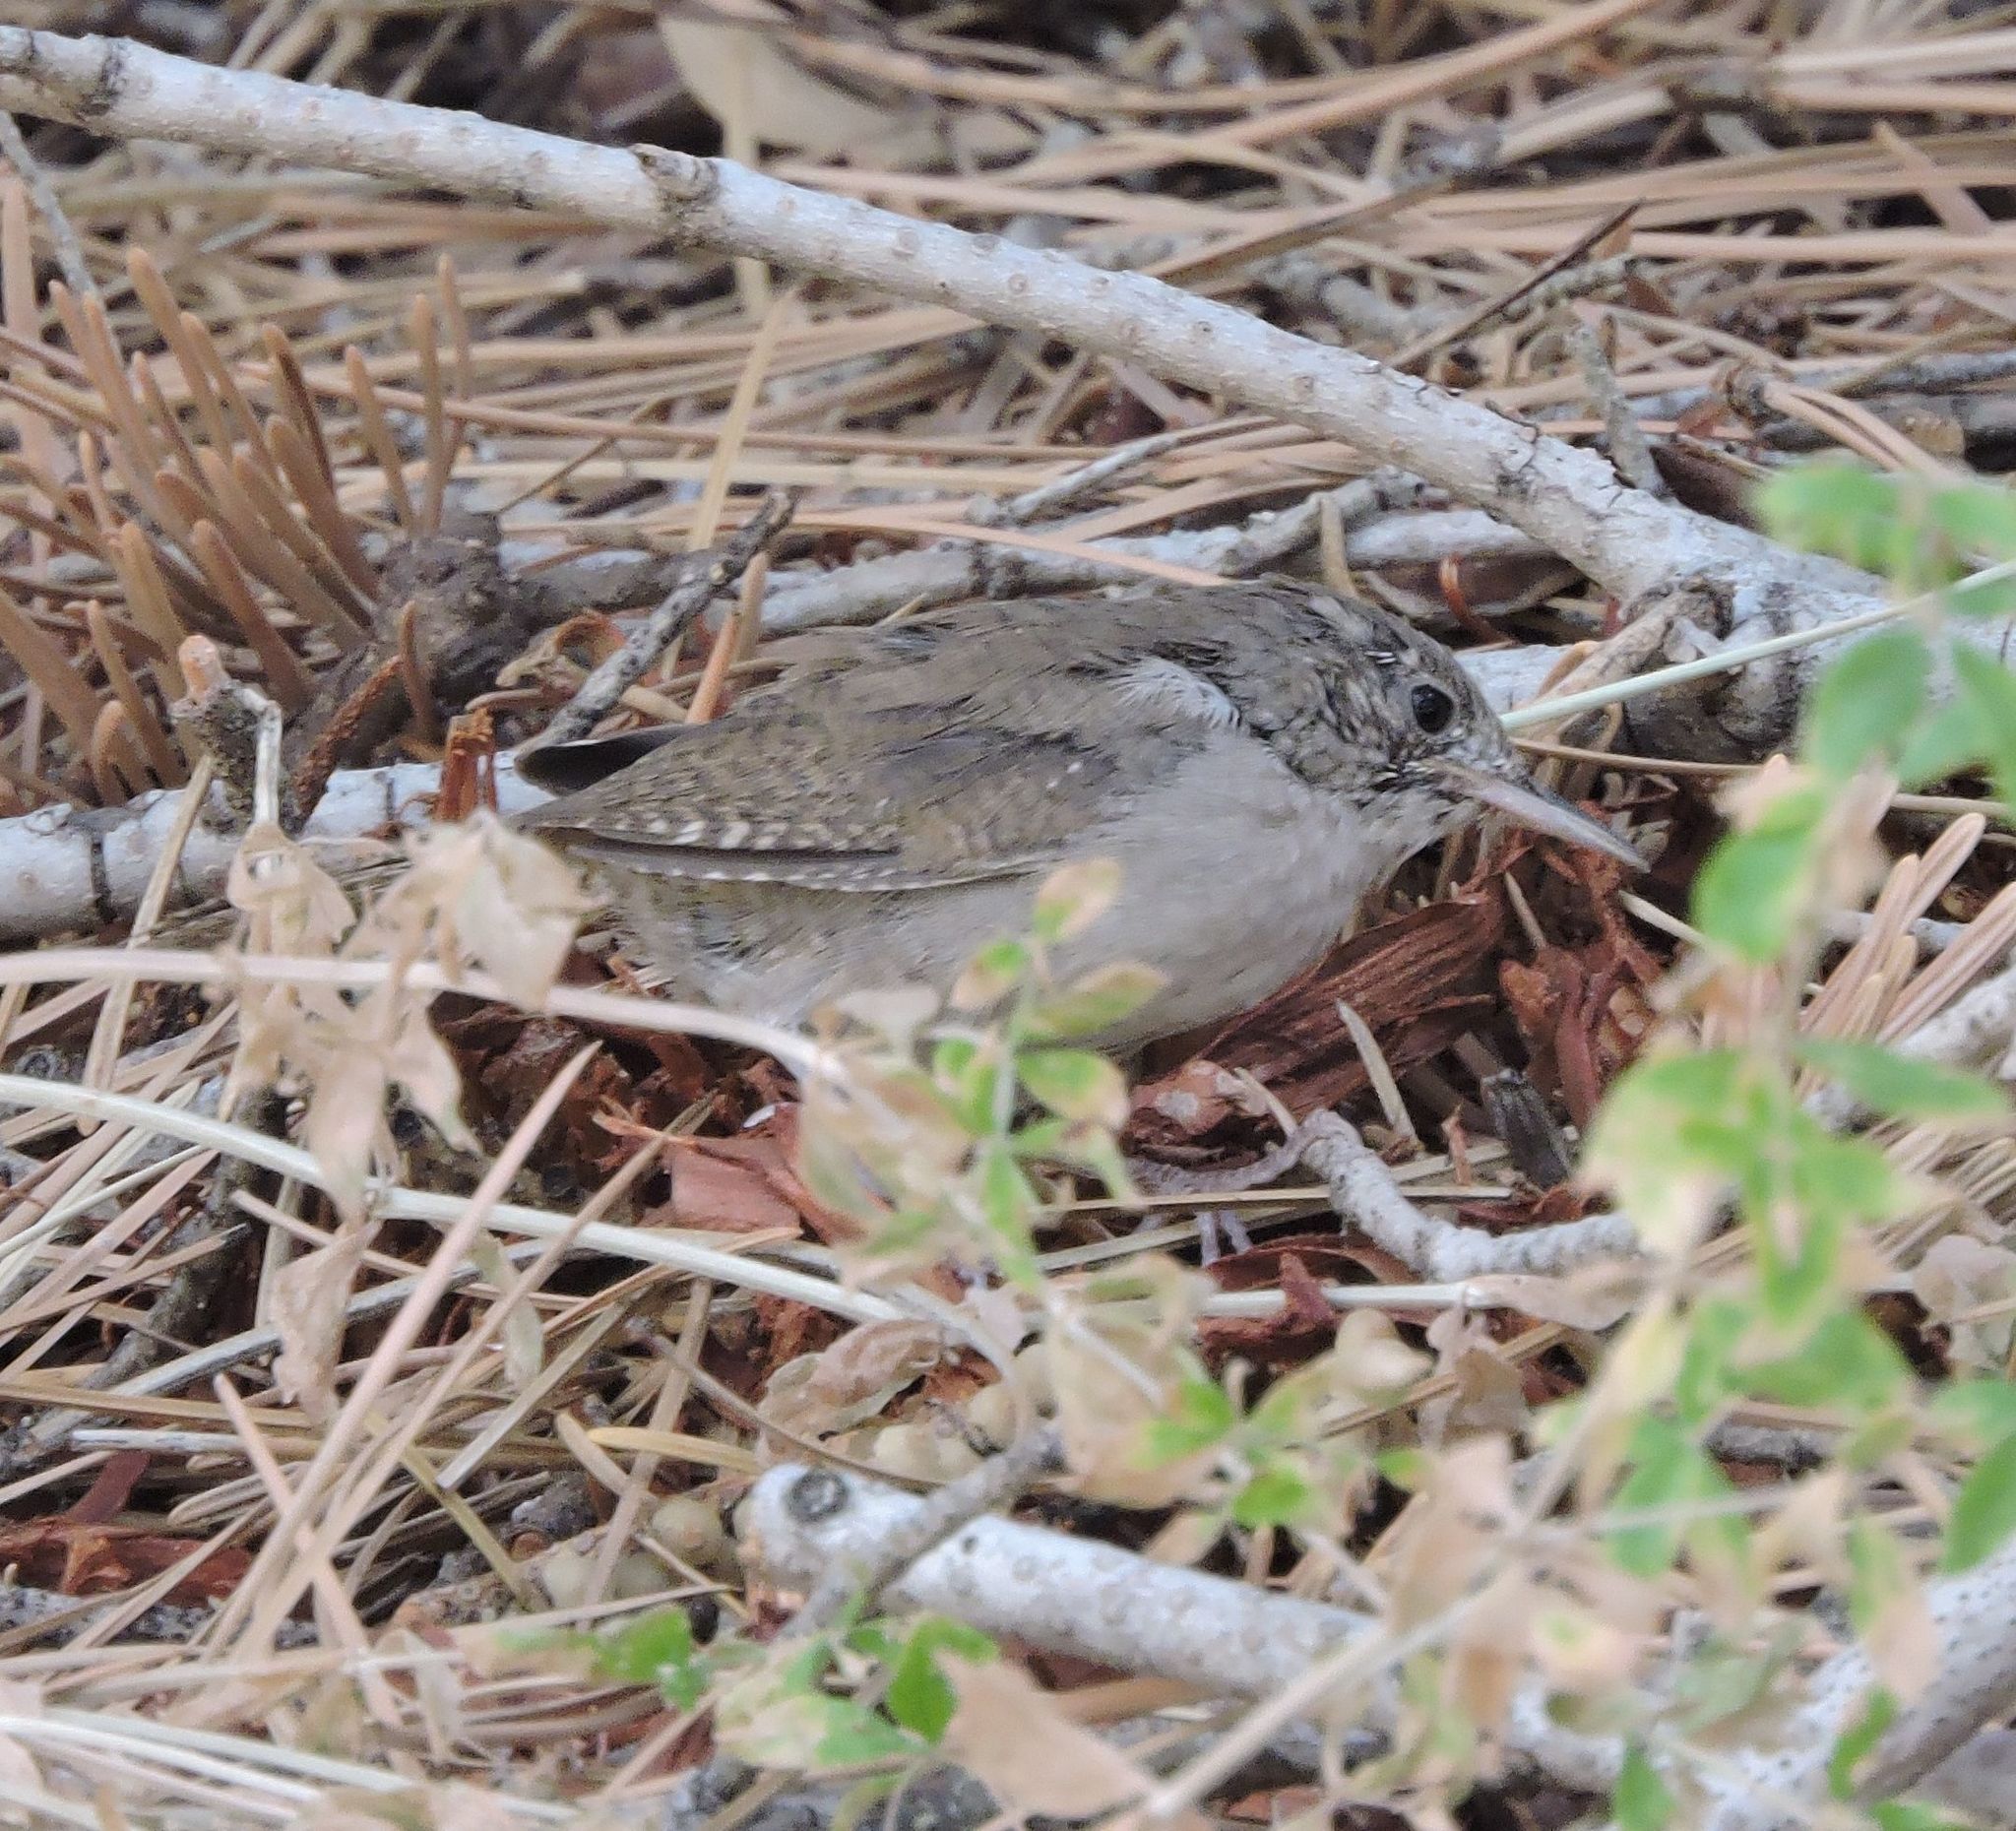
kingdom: Animalia
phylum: Chordata
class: Aves
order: Passeriformes
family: Troglodytidae
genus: Salpinctes
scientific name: Salpinctes obsoletus
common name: Rock wren
